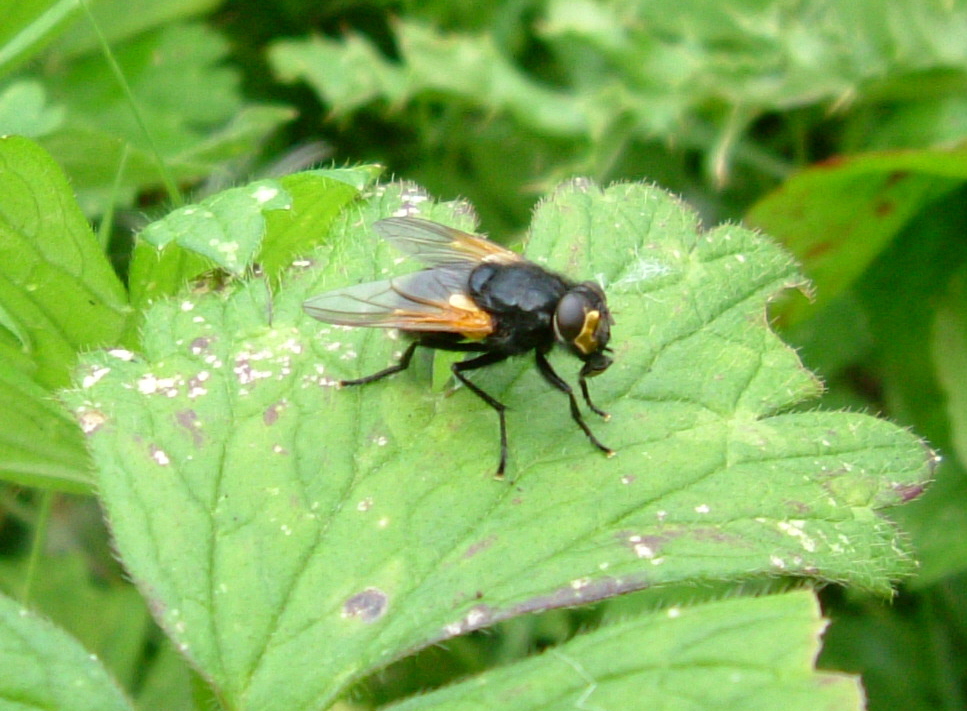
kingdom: Animalia
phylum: Arthropoda
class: Insecta
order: Diptera
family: Muscidae
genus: Mesembrina
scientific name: Mesembrina meridiana
